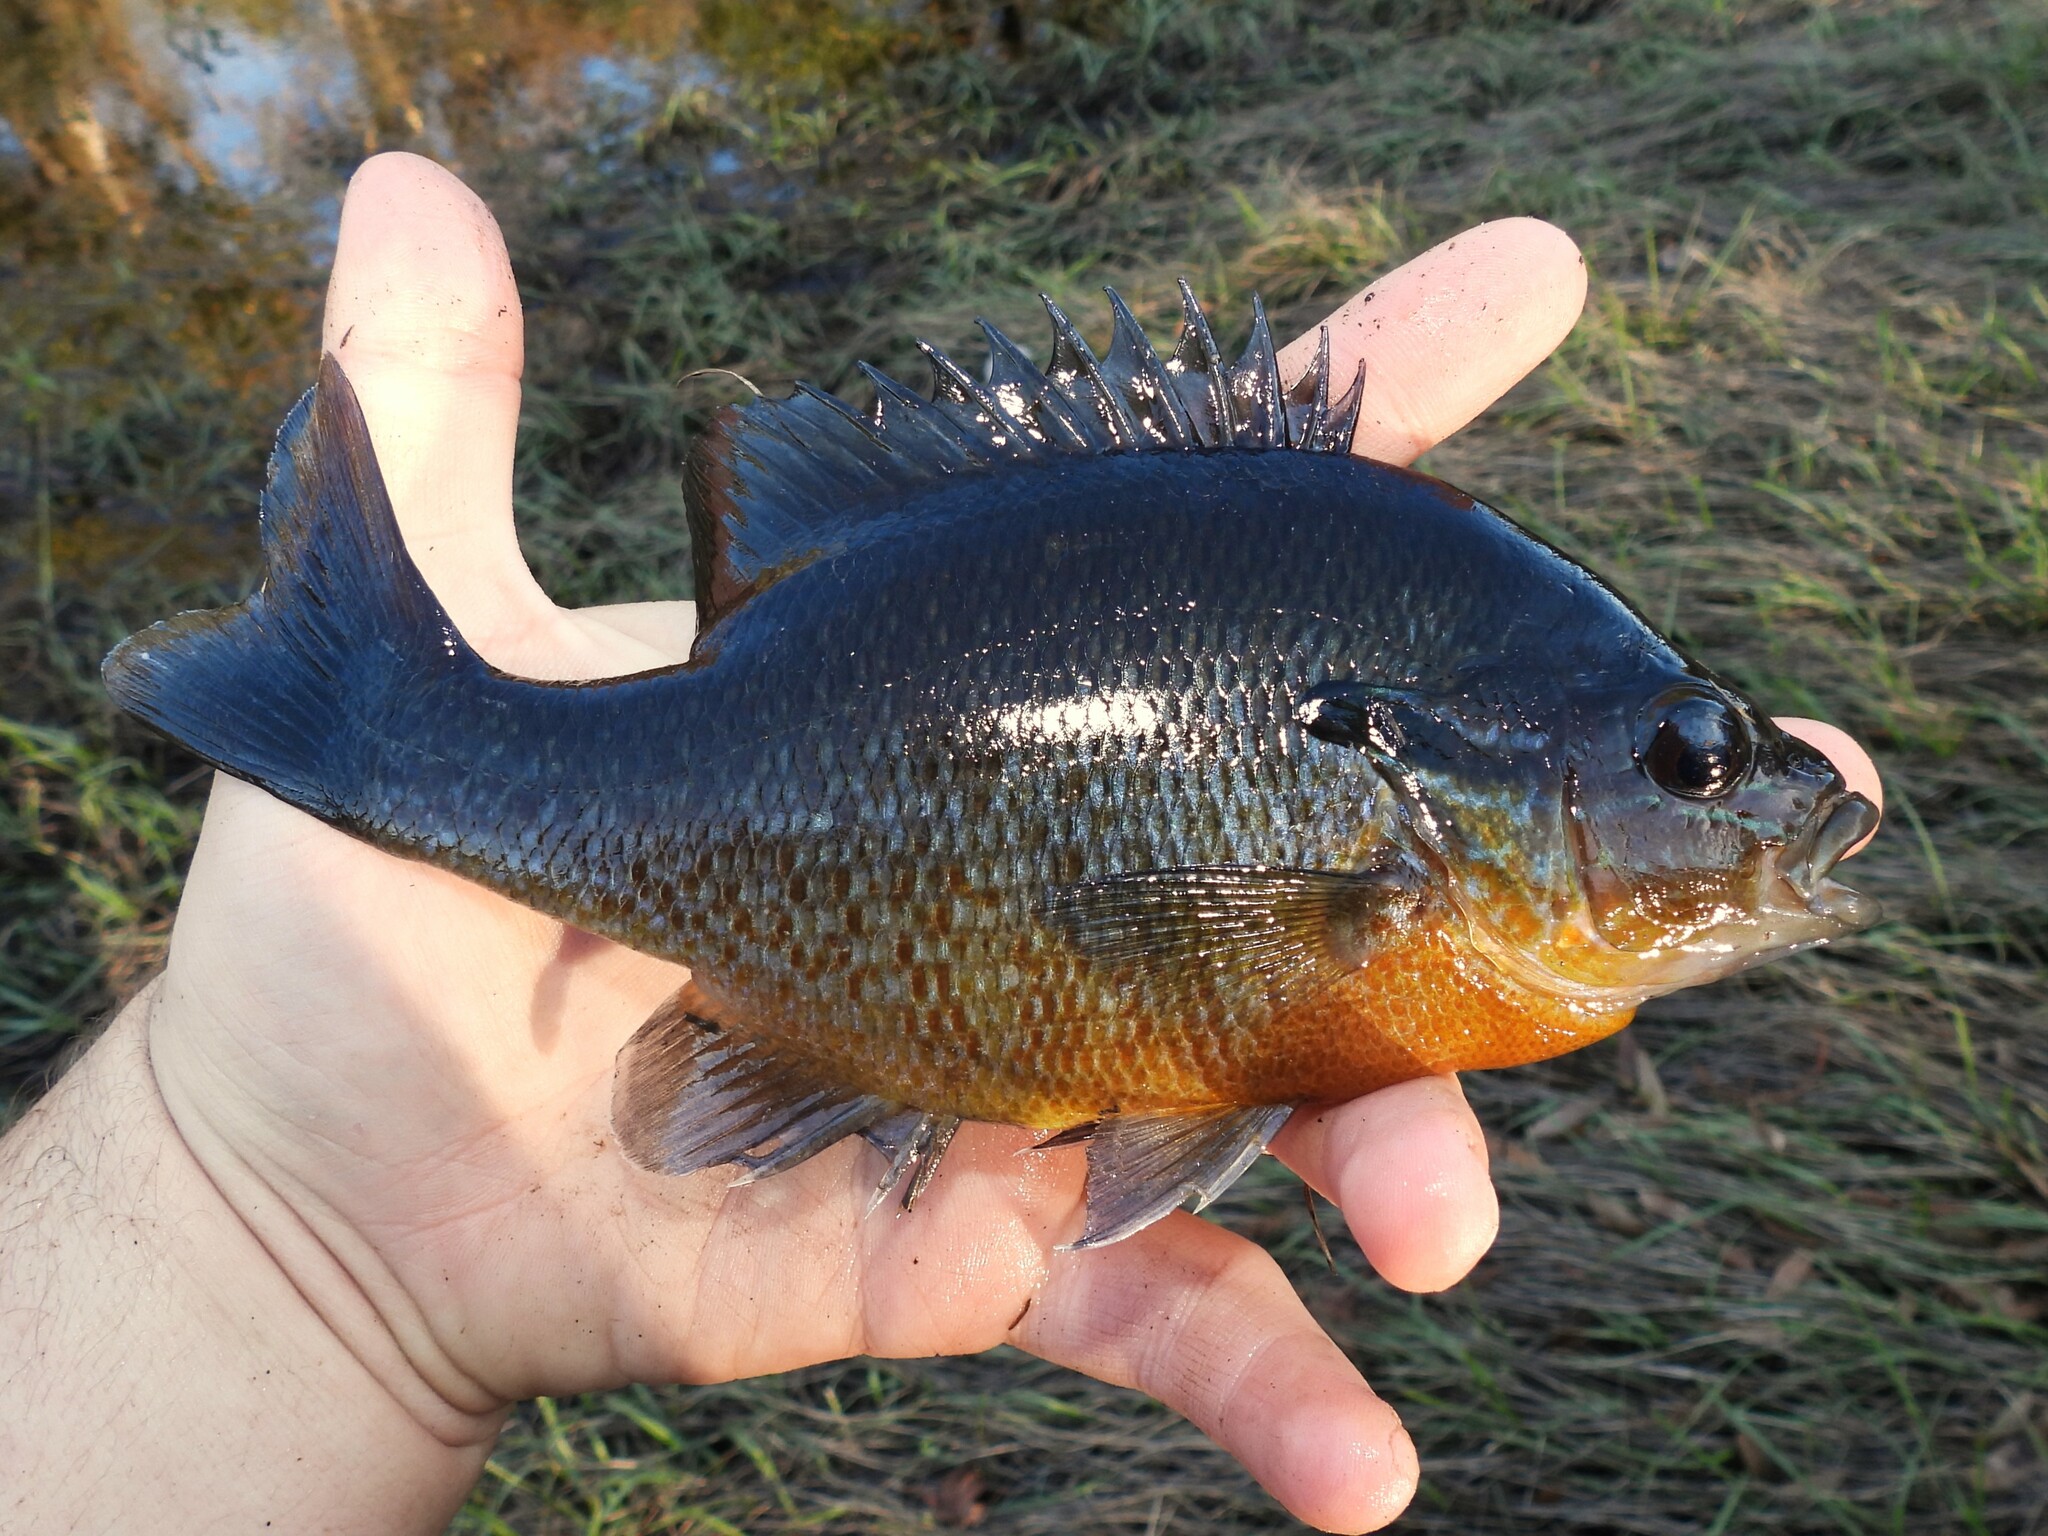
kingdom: Animalia
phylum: Chordata
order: Perciformes
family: Centrarchidae
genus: Lepomis
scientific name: Lepomis auritus
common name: Redbreast sunfish
